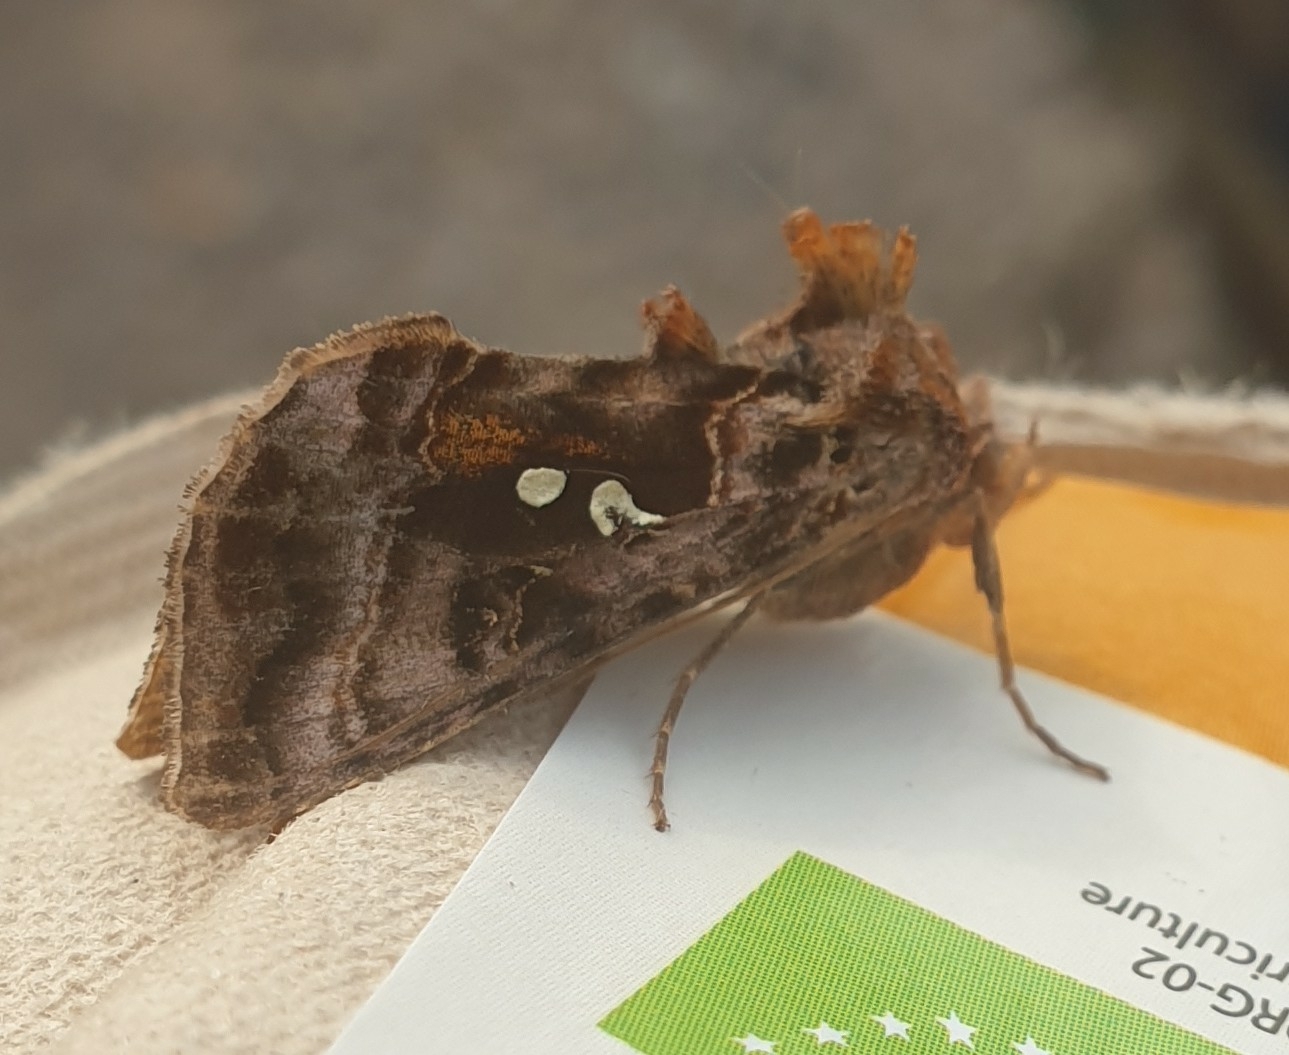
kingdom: Animalia
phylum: Arthropoda
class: Insecta
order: Lepidoptera
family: Noctuidae
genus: Autographa
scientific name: Autographa pulchrina
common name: Beautiful golden y
